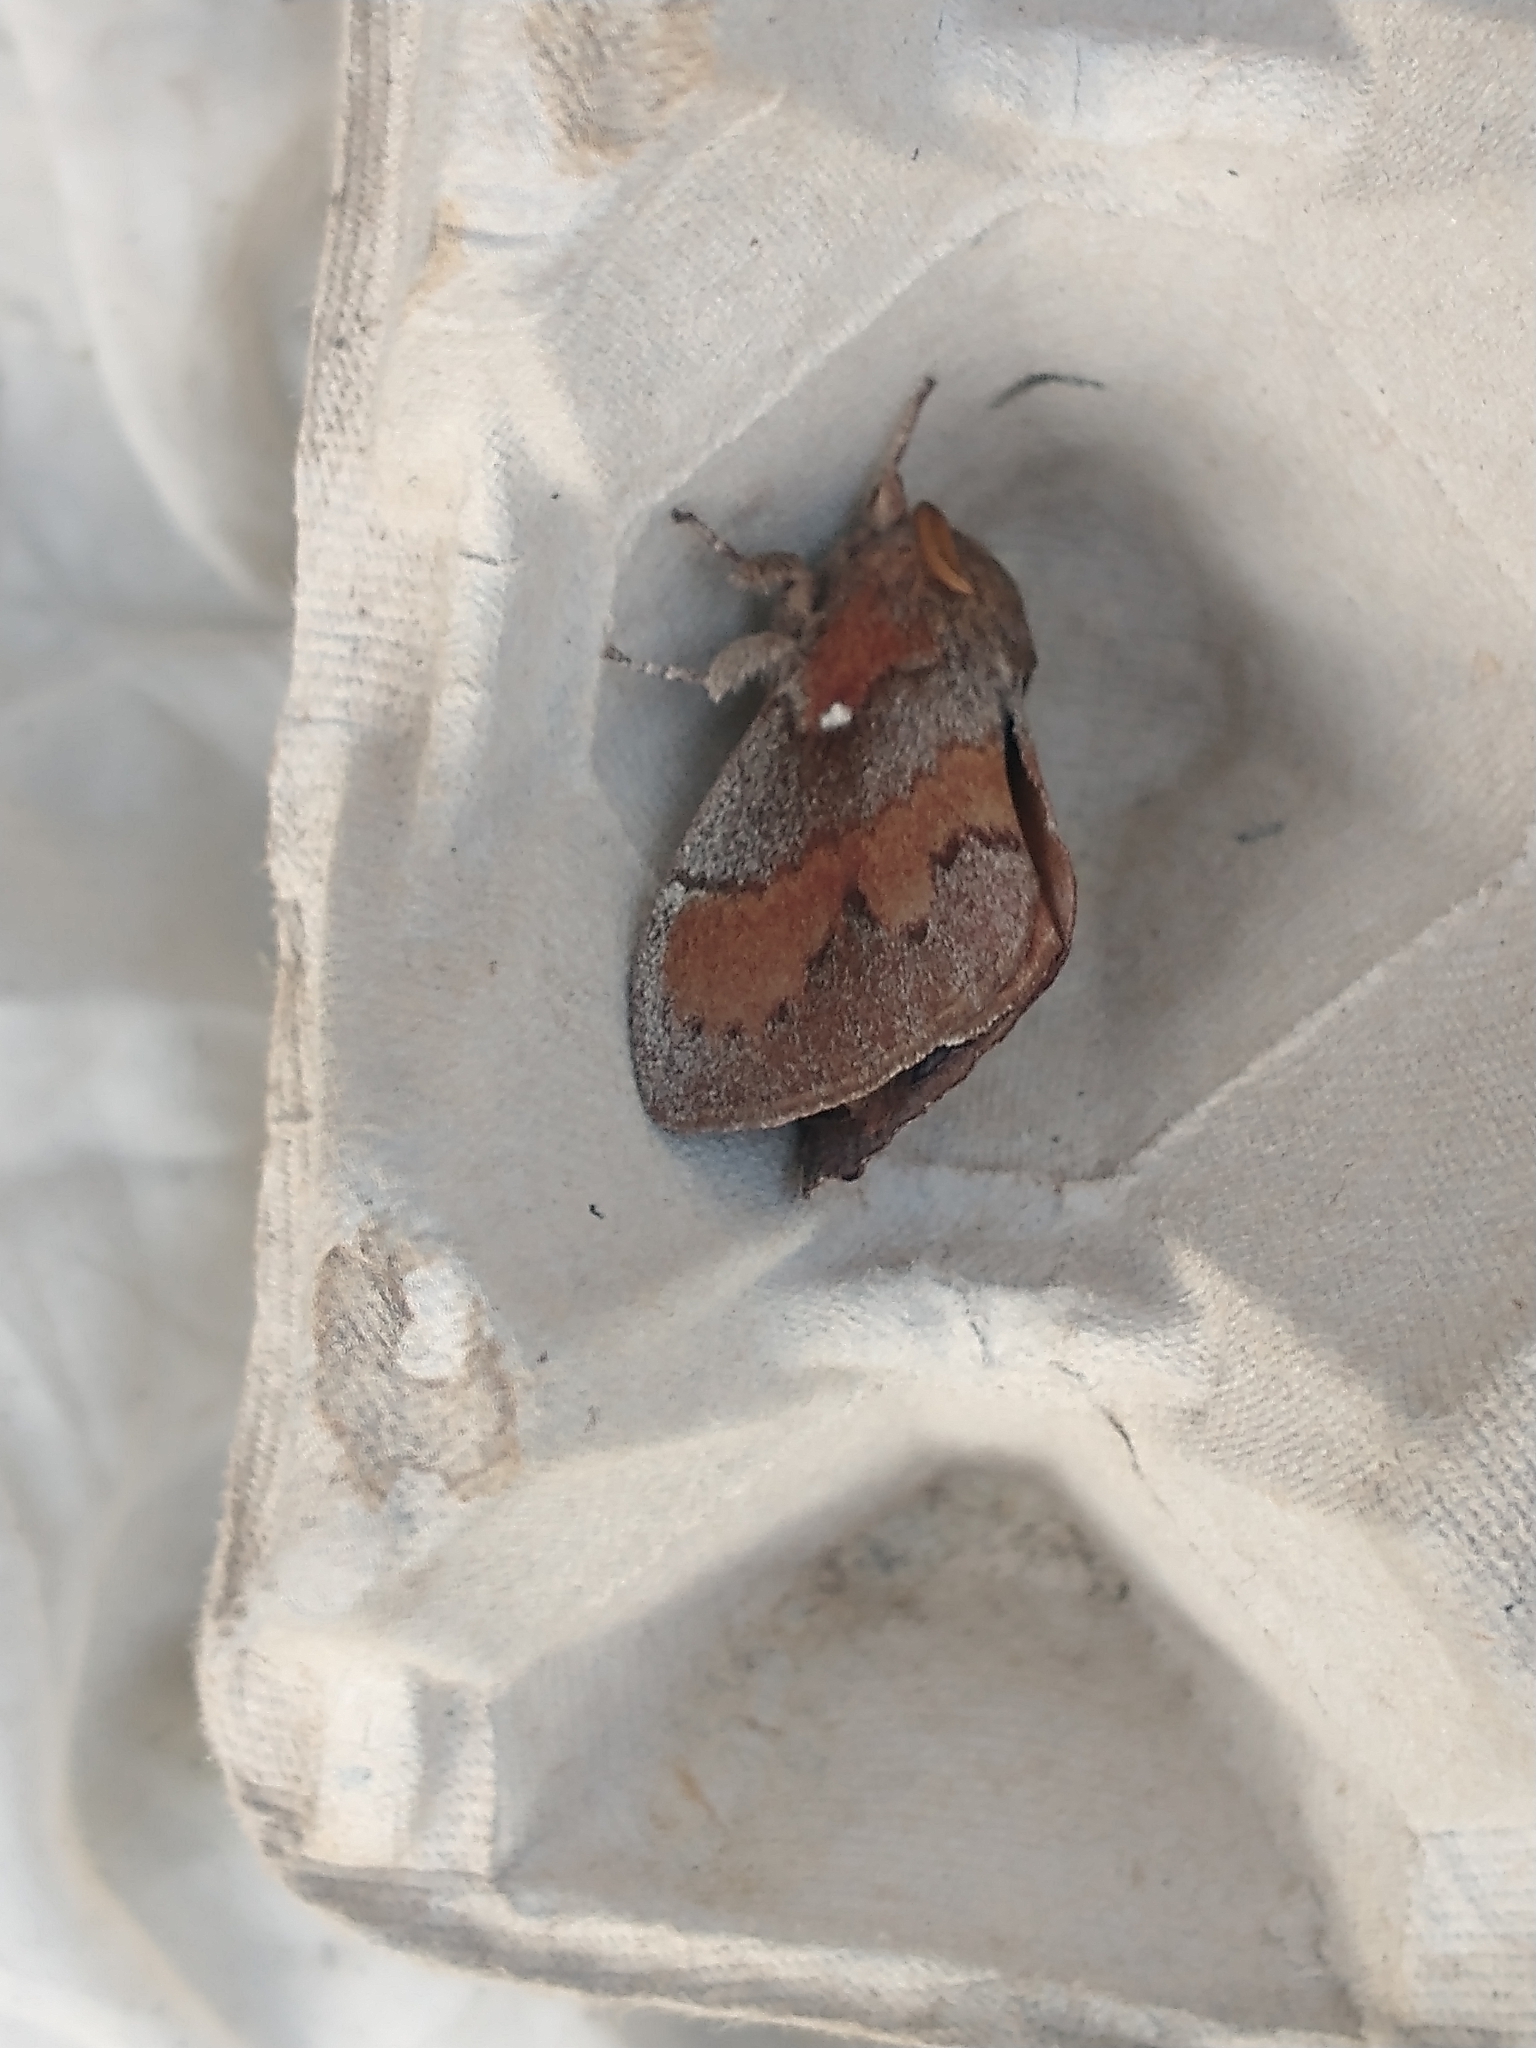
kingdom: Animalia
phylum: Arthropoda
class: Insecta
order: Lepidoptera
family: Lasiocampidae
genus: Dendrolimus
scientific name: Dendrolimus pini
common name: Pine-tree lappet
